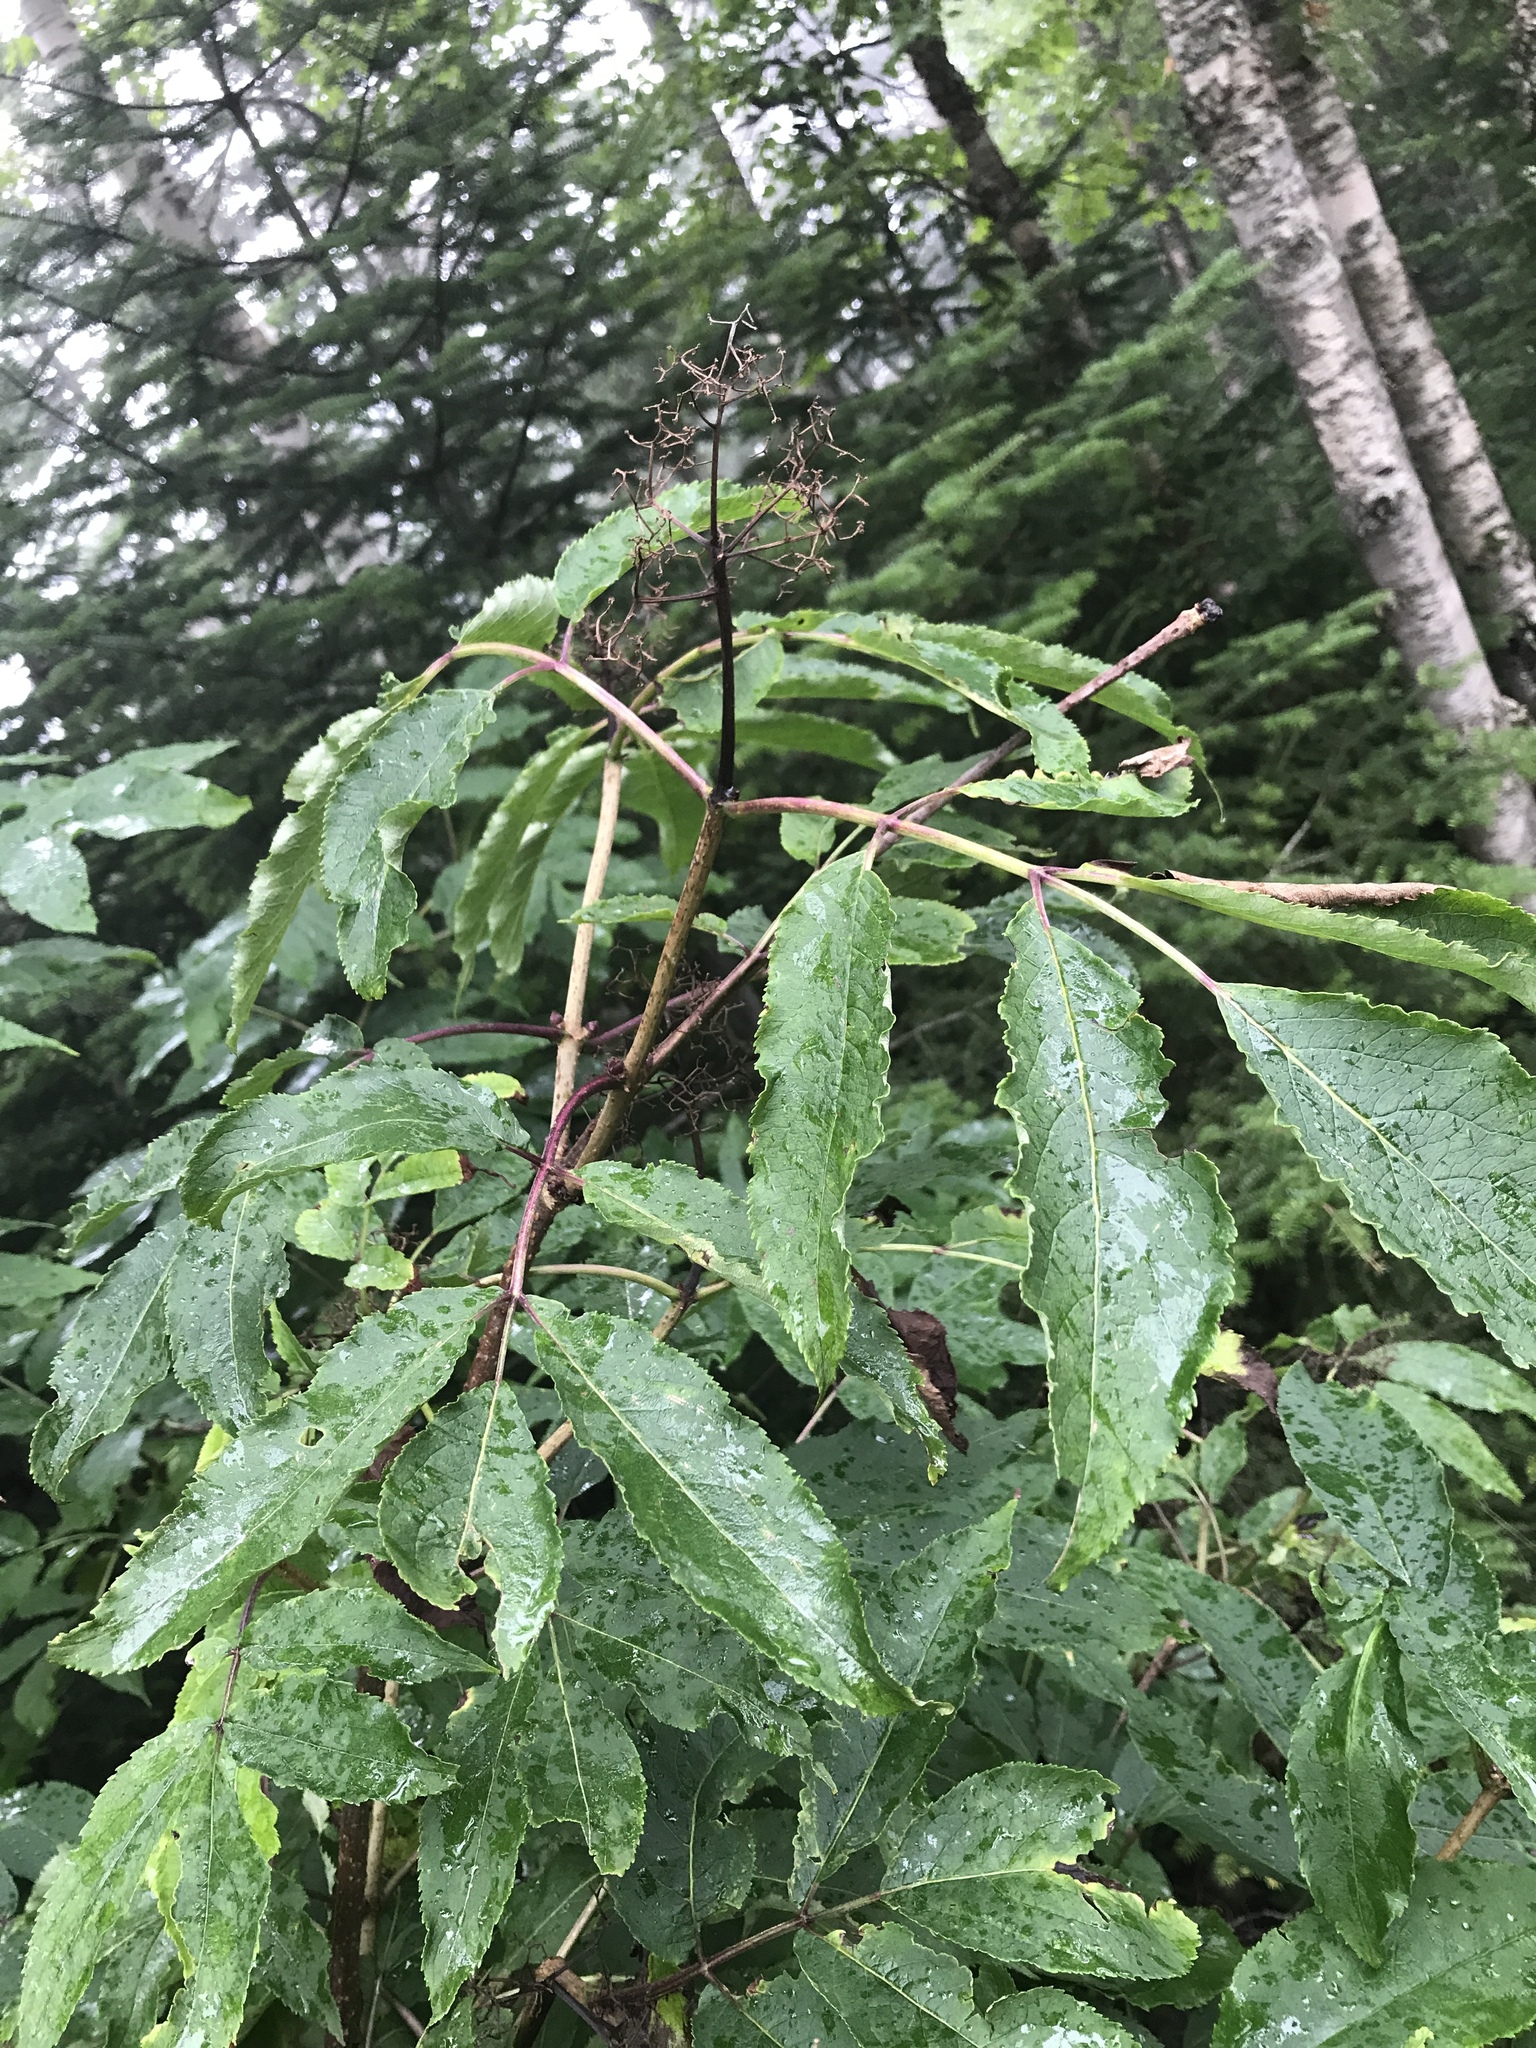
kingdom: Plantae
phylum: Tracheophyta
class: Magnoliopsida
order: Dipsacales
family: Viburnaceae
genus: Sambucus
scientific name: Sambucus racemosa
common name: Red-berried elder
